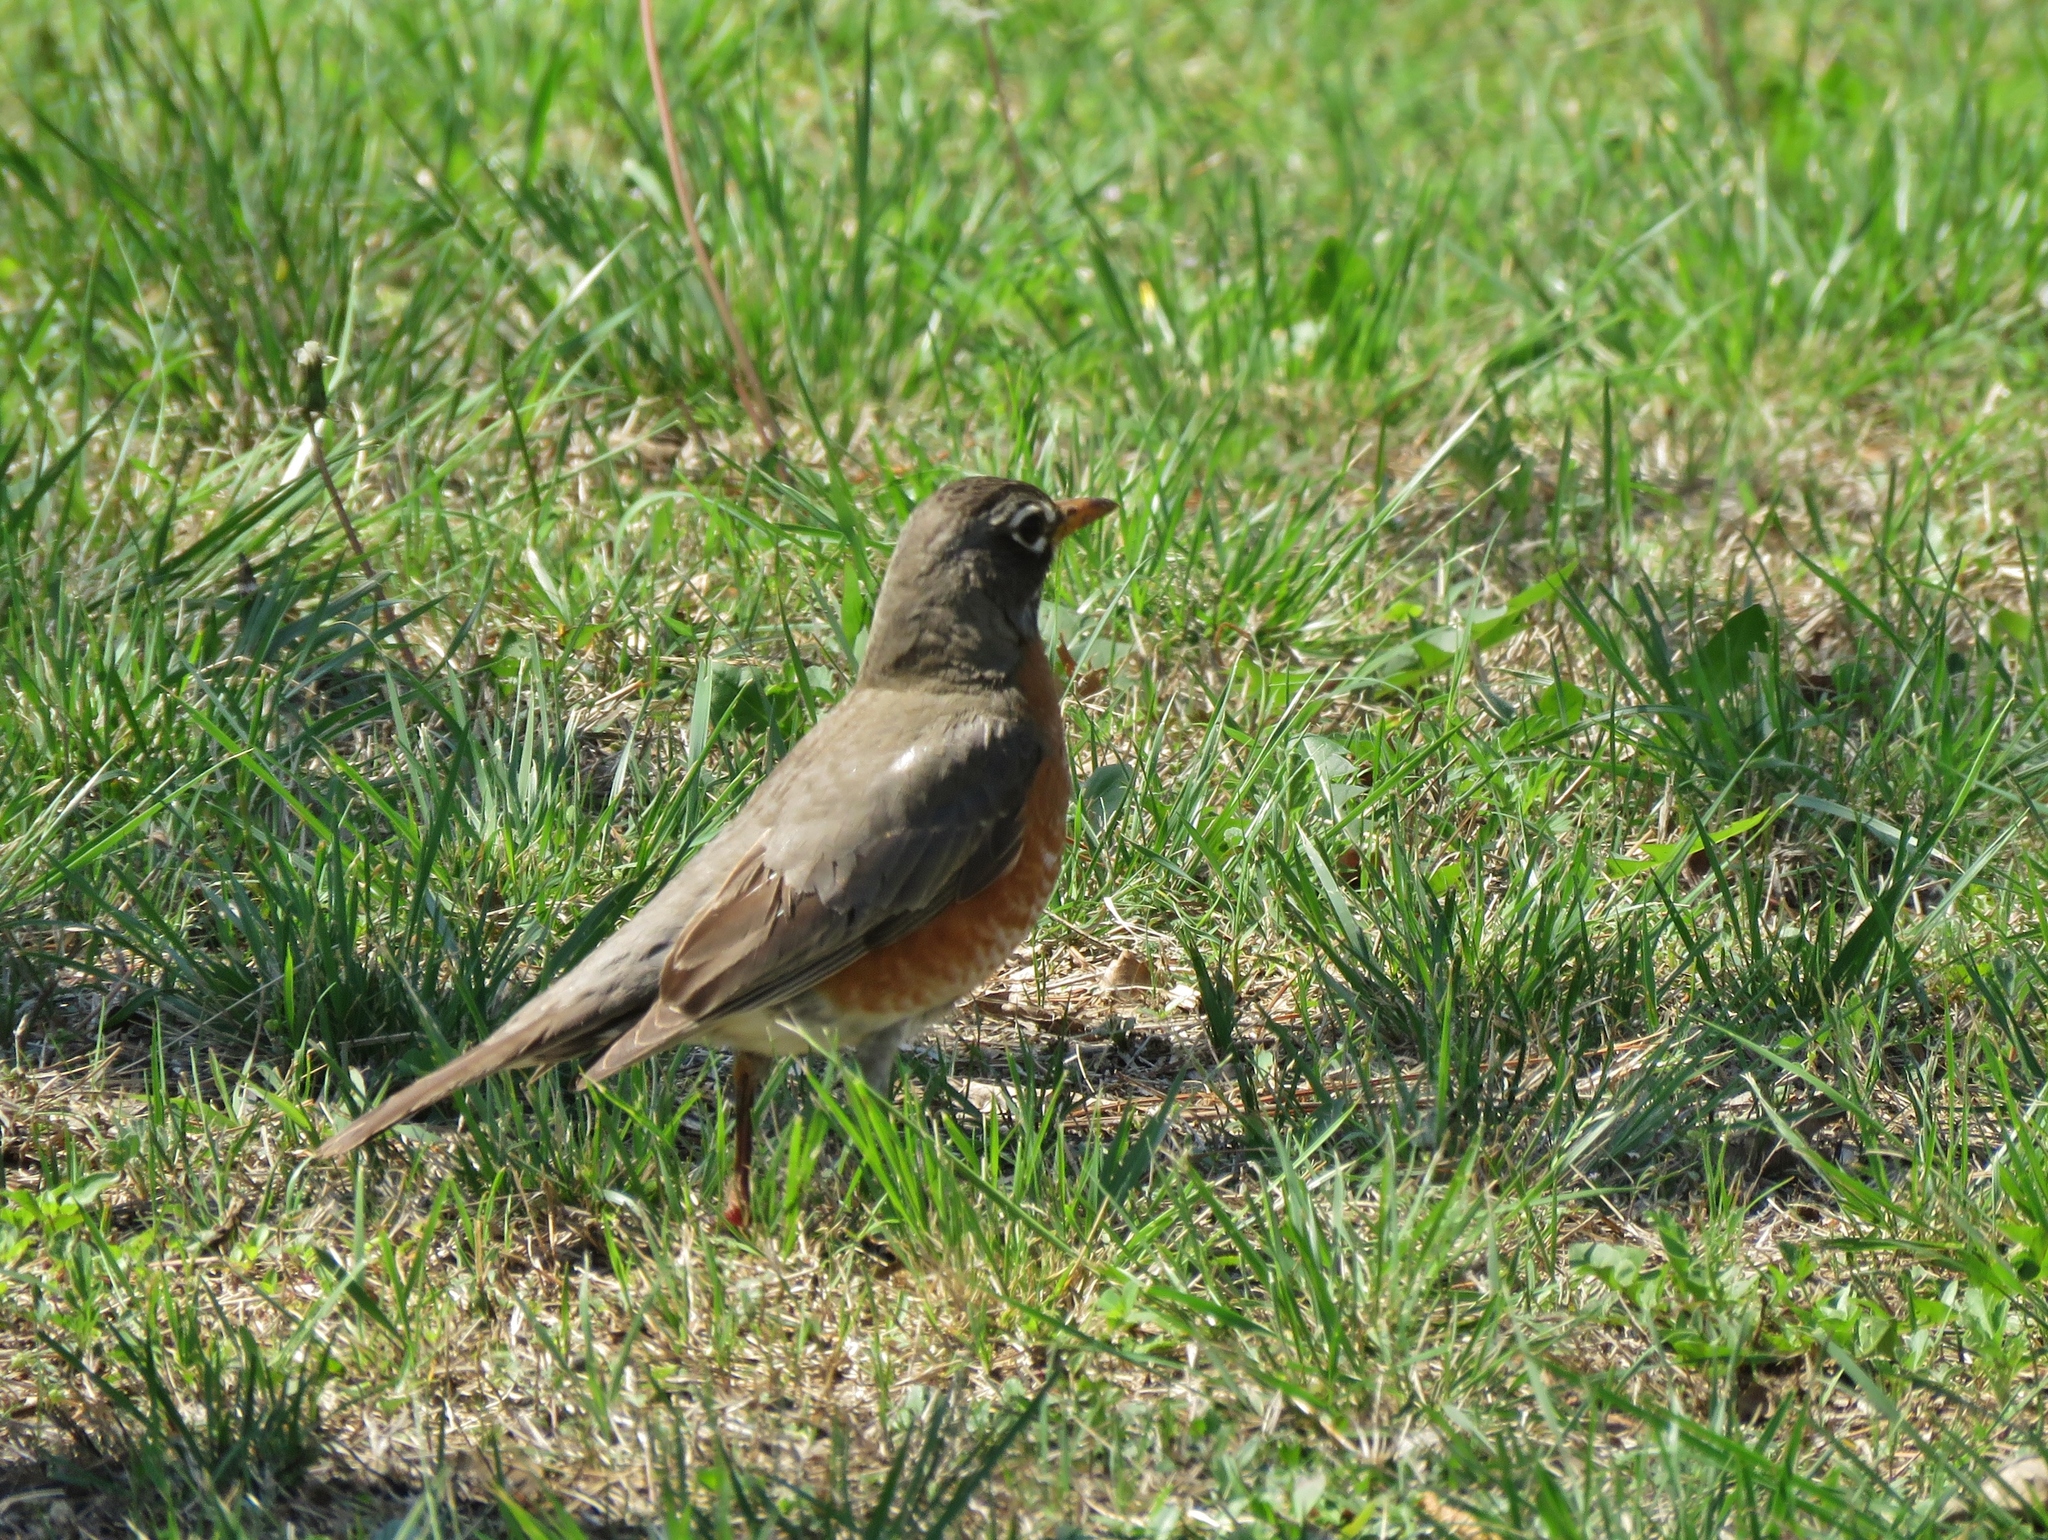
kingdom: Animalia
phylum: Chordata
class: Aves
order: Passeriformes
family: Turdidae
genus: Turdus
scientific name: Turdus migratorius
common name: American robin
